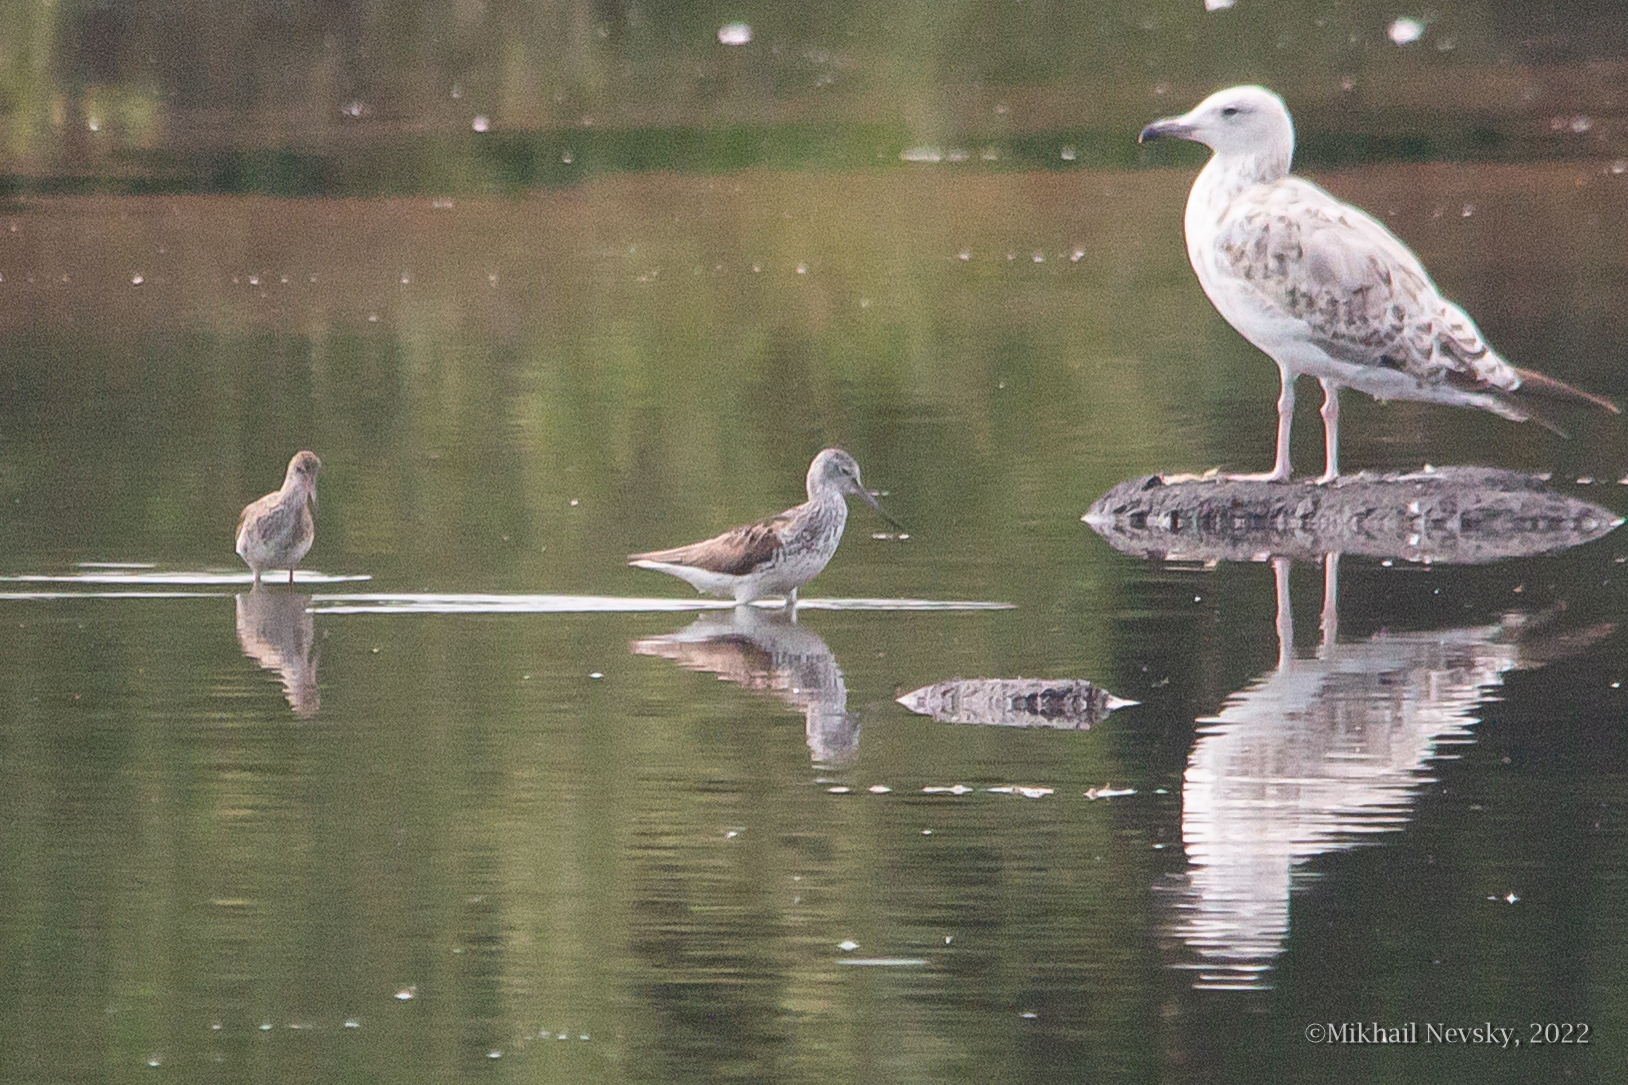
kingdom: Animalia
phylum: Chordata
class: Aves
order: Charadriiformes
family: Scolopacidae
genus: Tringa
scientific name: Tringa nebularia
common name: Common greenshank
